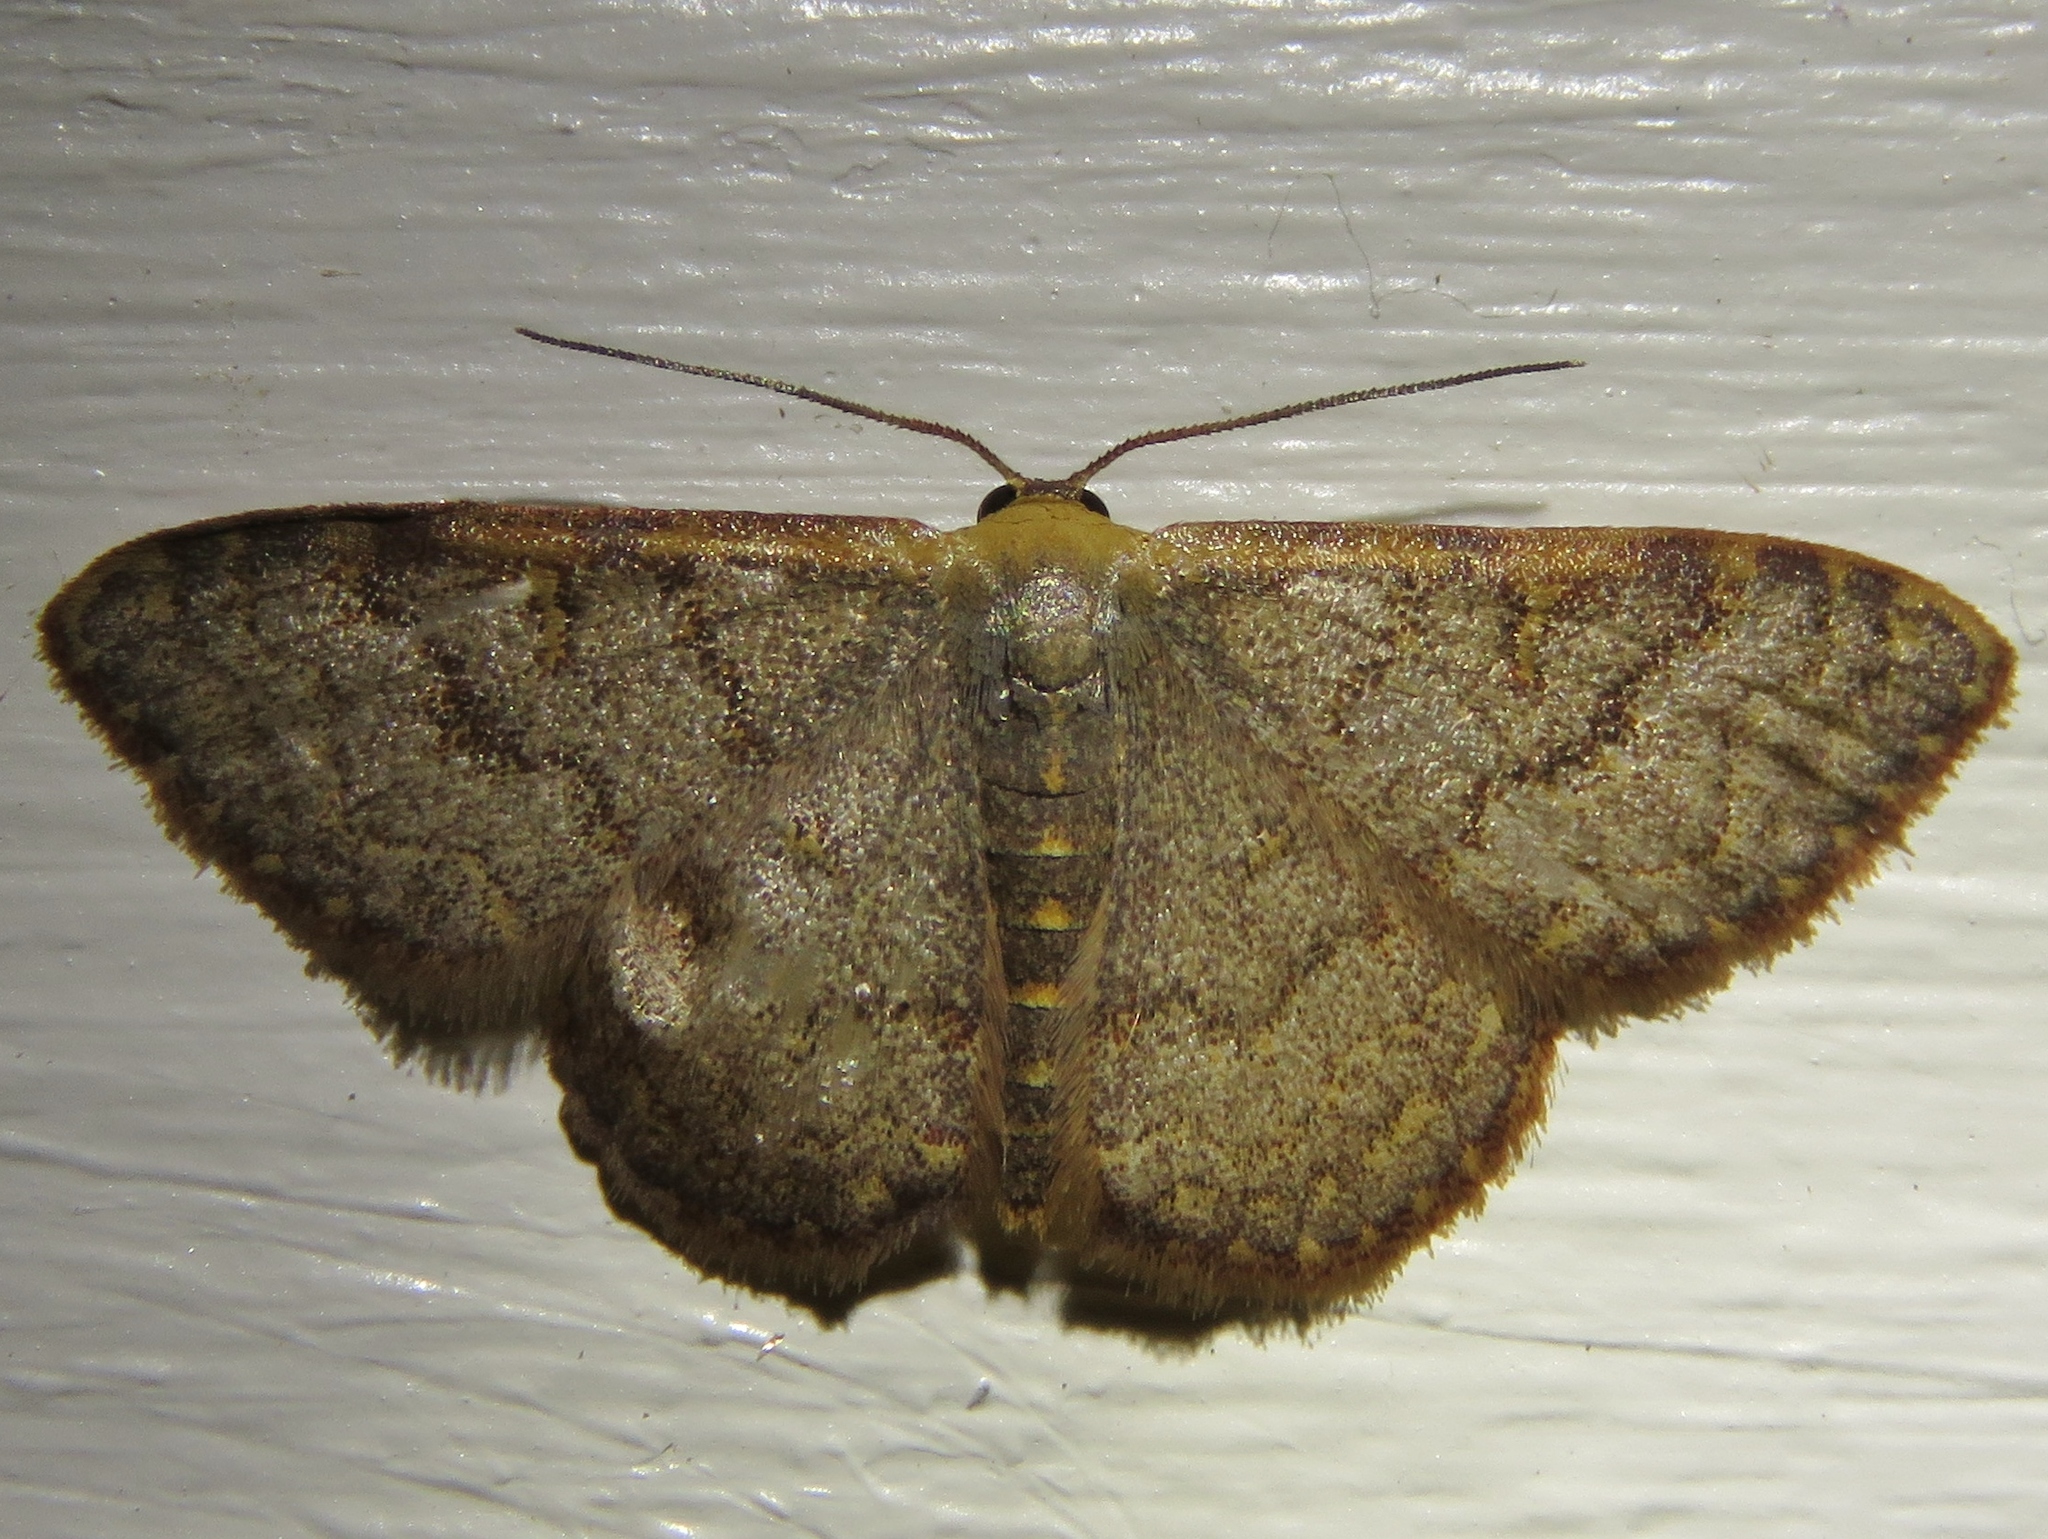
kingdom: Animalia
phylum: Arthropoda
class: Insecta
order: Lepidoptera
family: Geometridae
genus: Leptostales
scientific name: Leptostales pannaria
